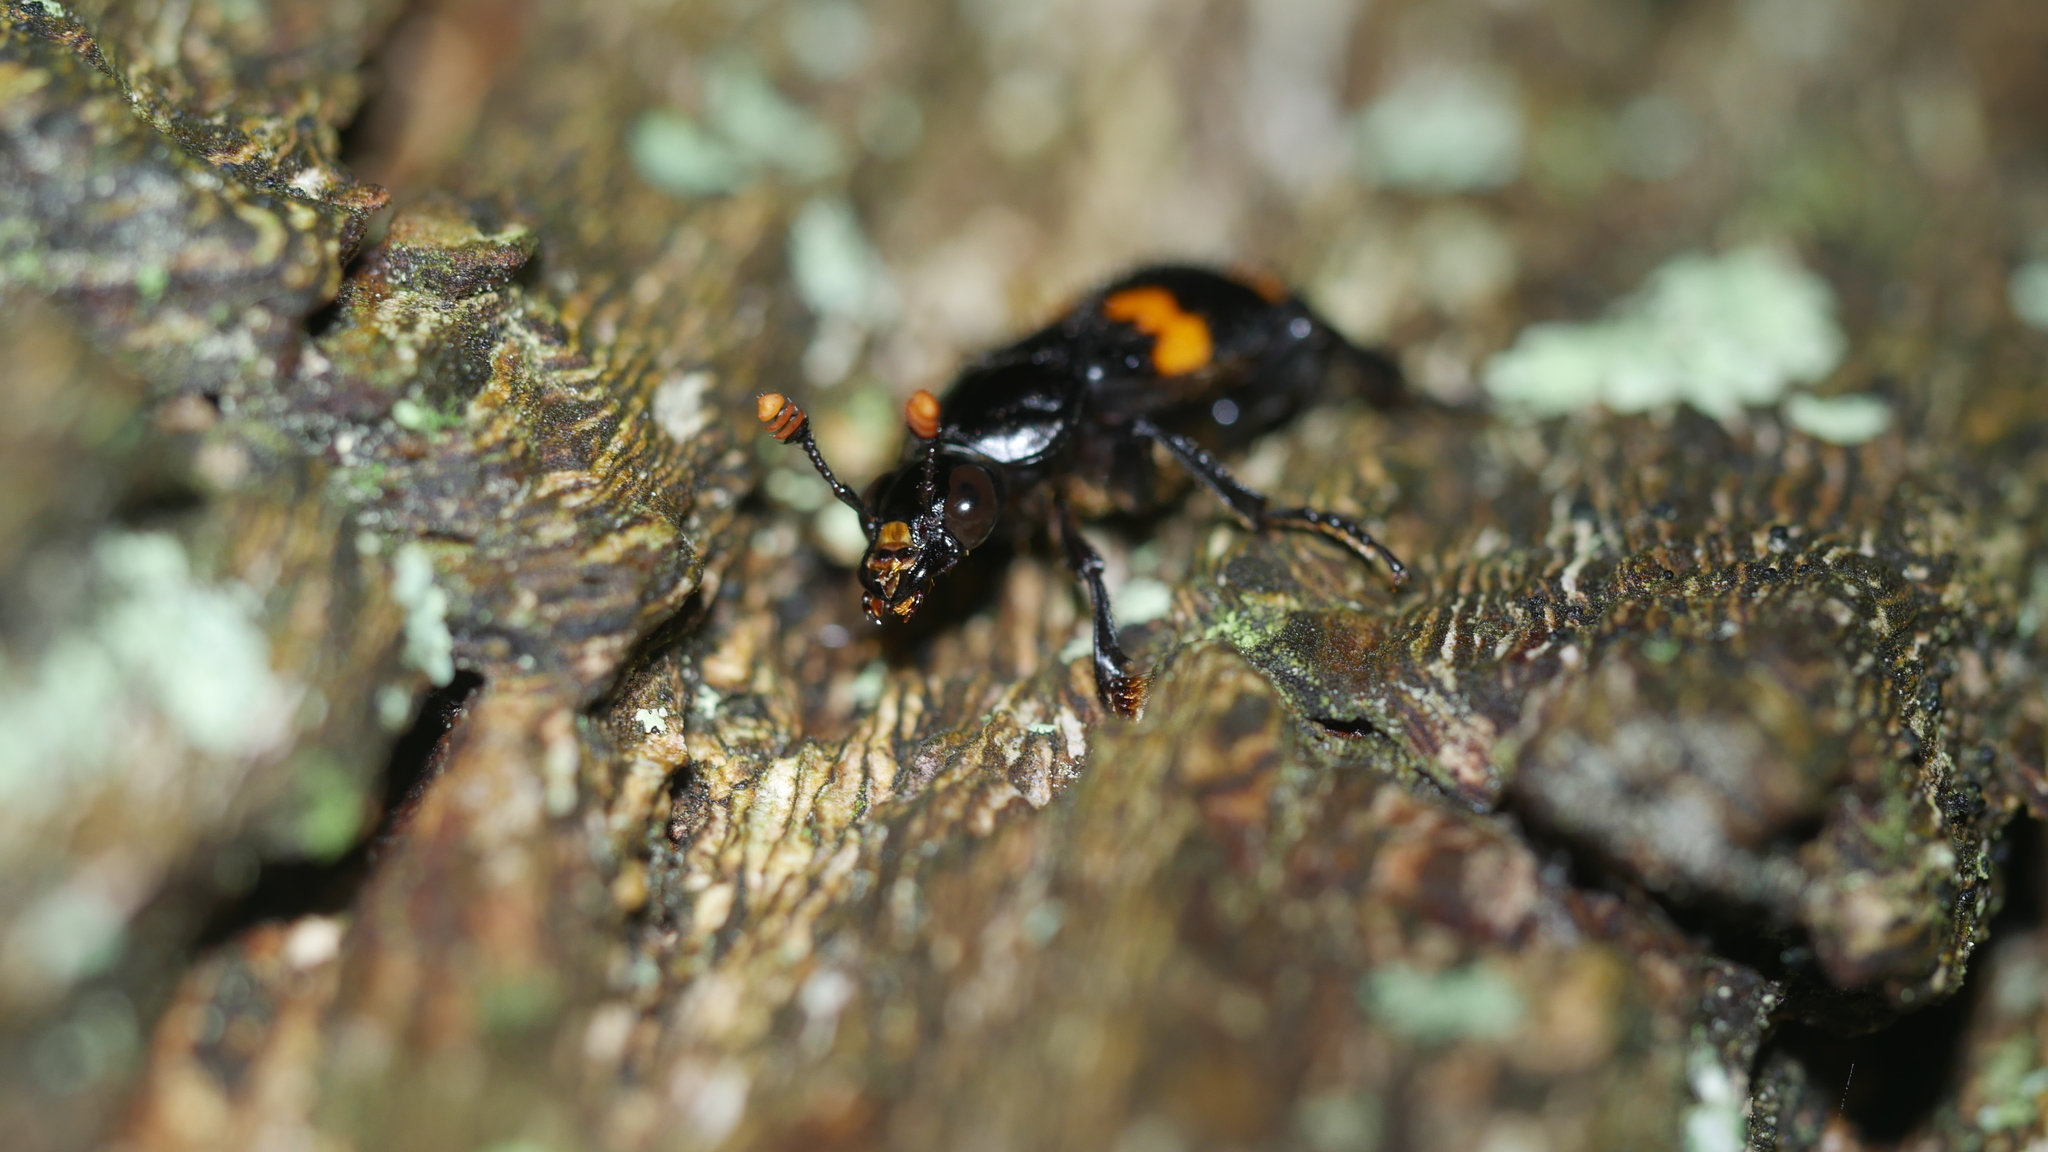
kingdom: Animalia
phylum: Arthropoda
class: Insecta
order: Coleoptera
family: Staphylinidae
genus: Nicrophorus
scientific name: Nicrophorus orbicollis
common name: Roundneck sexton beetle
